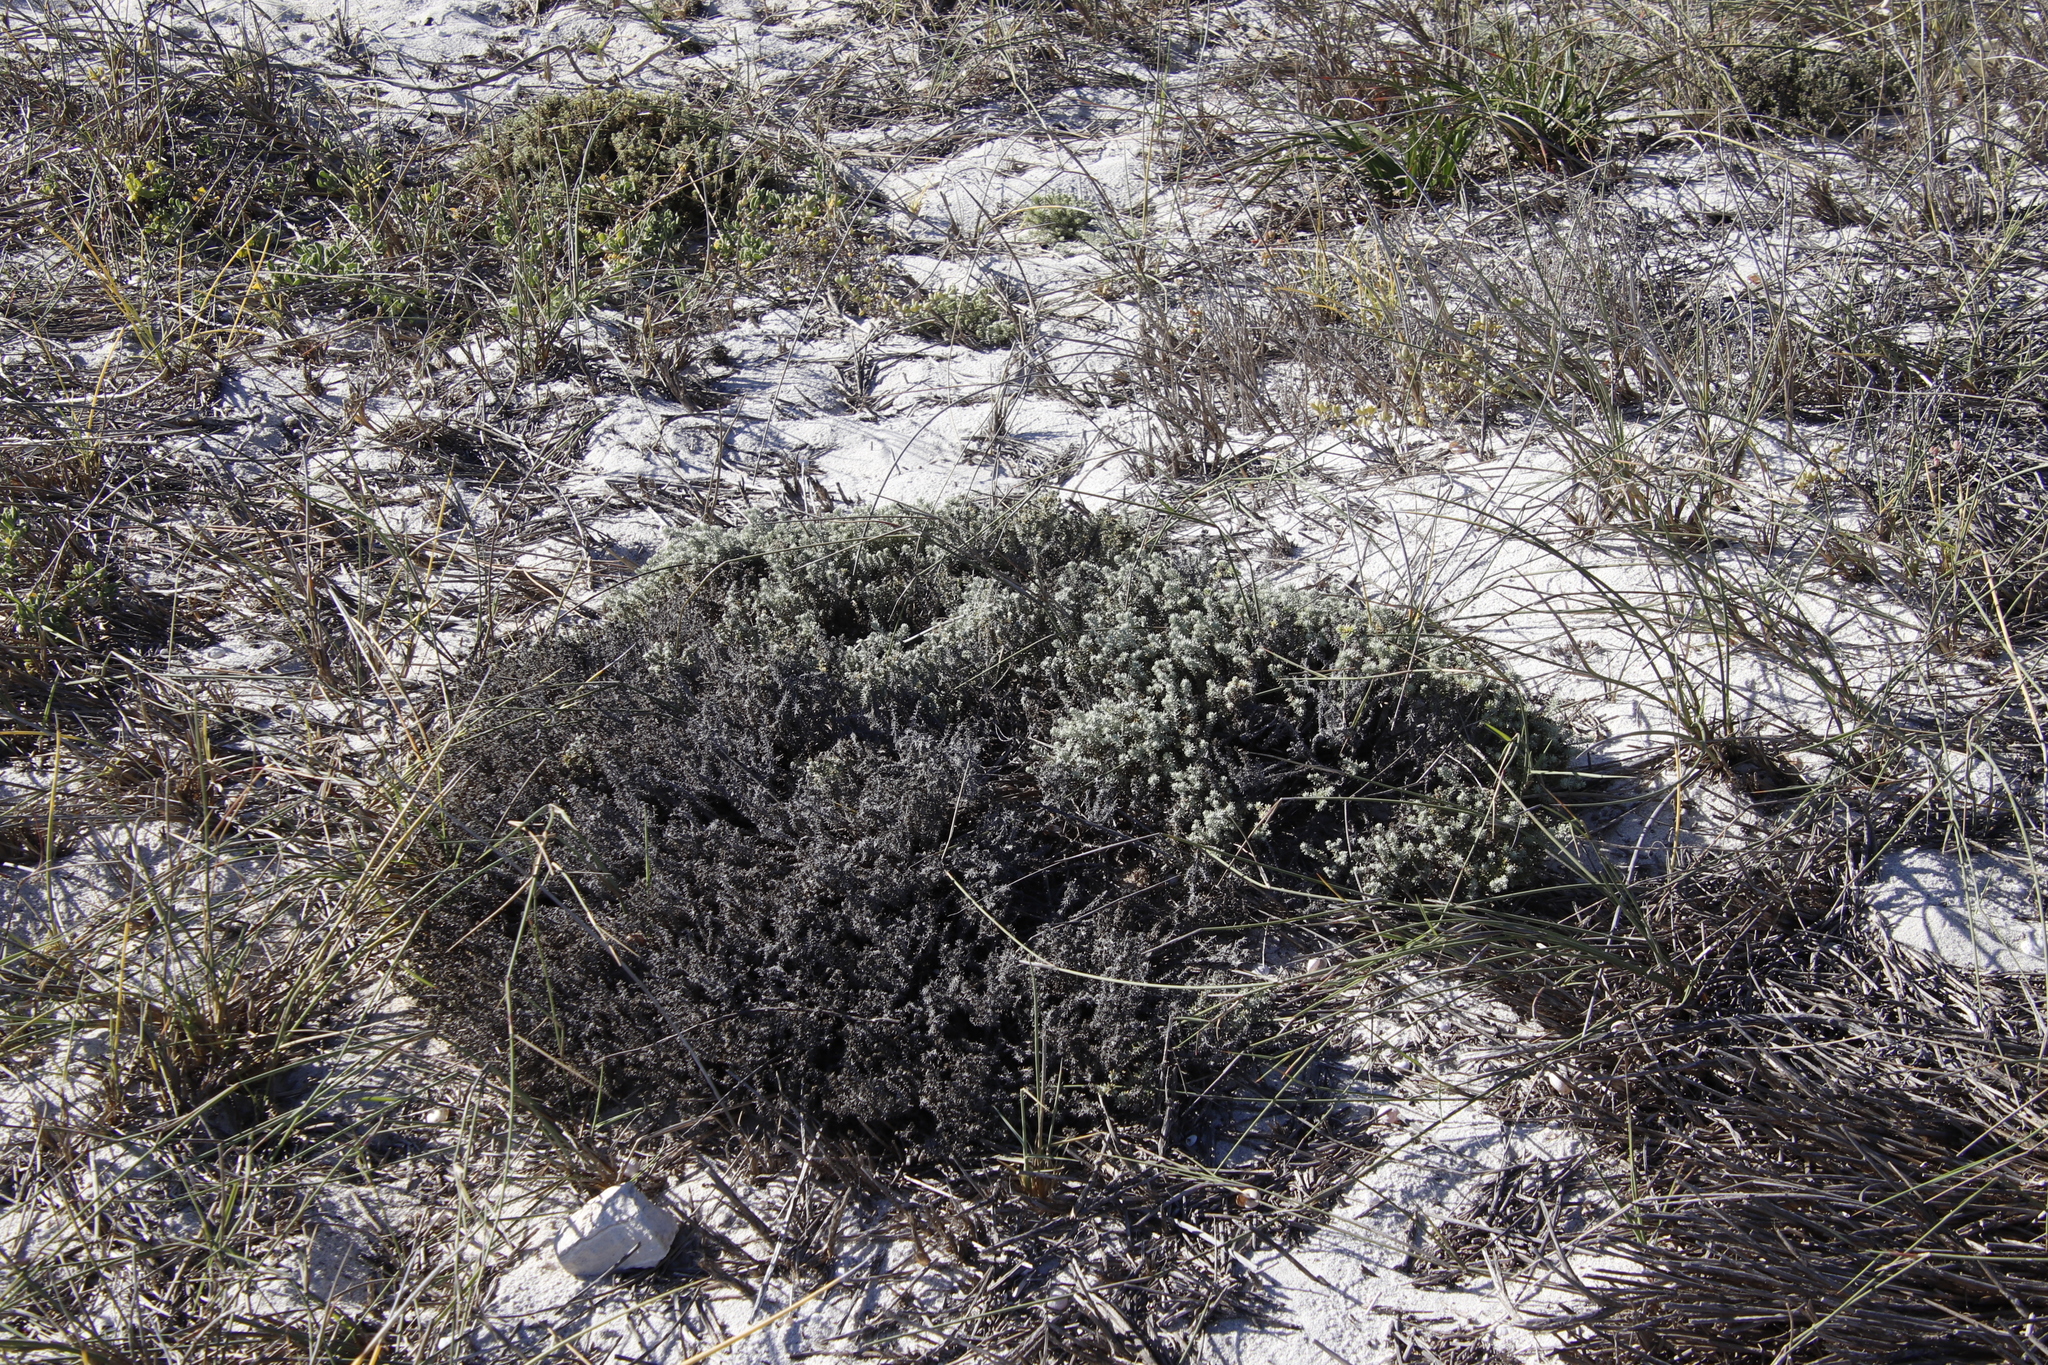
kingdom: Plantae
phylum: Tracheophyta
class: Magnoliopsida
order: Asterales
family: Asteraceae
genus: Helichrysum
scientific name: Helichrysum niveum
